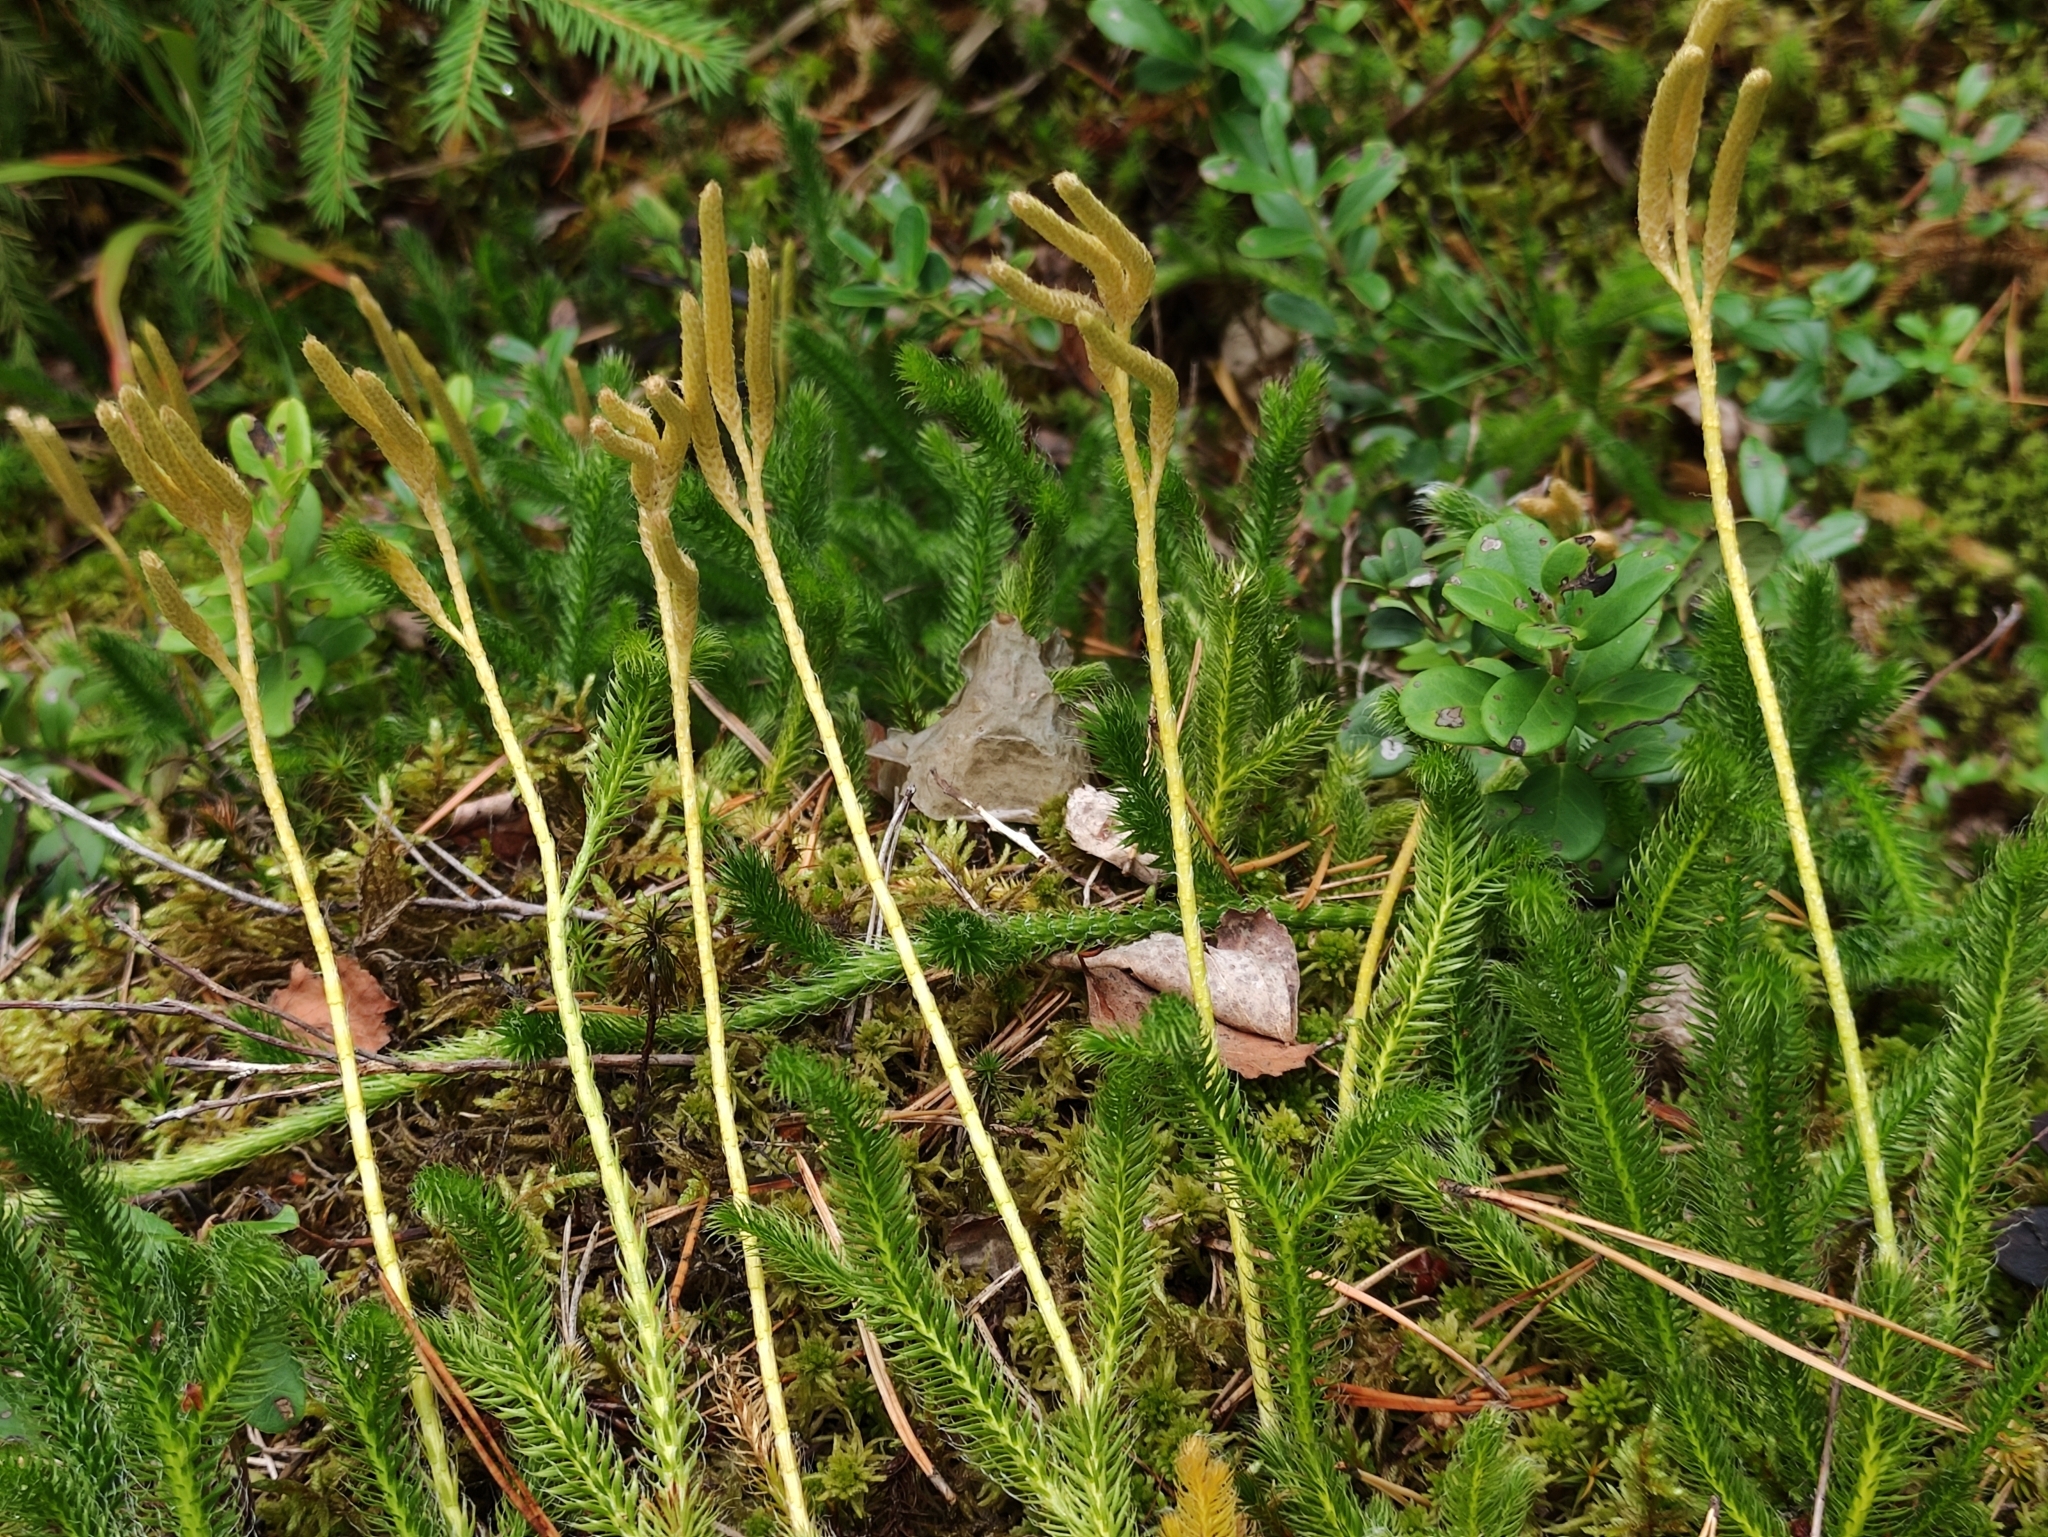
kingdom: Plantae
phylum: Tracheophyta
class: Lycopodiopsida
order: Lycopodiales
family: Lycopodiaceae
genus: Lycopodium
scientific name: Lycopodium clavatum
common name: Stag's-horn clubmoss
